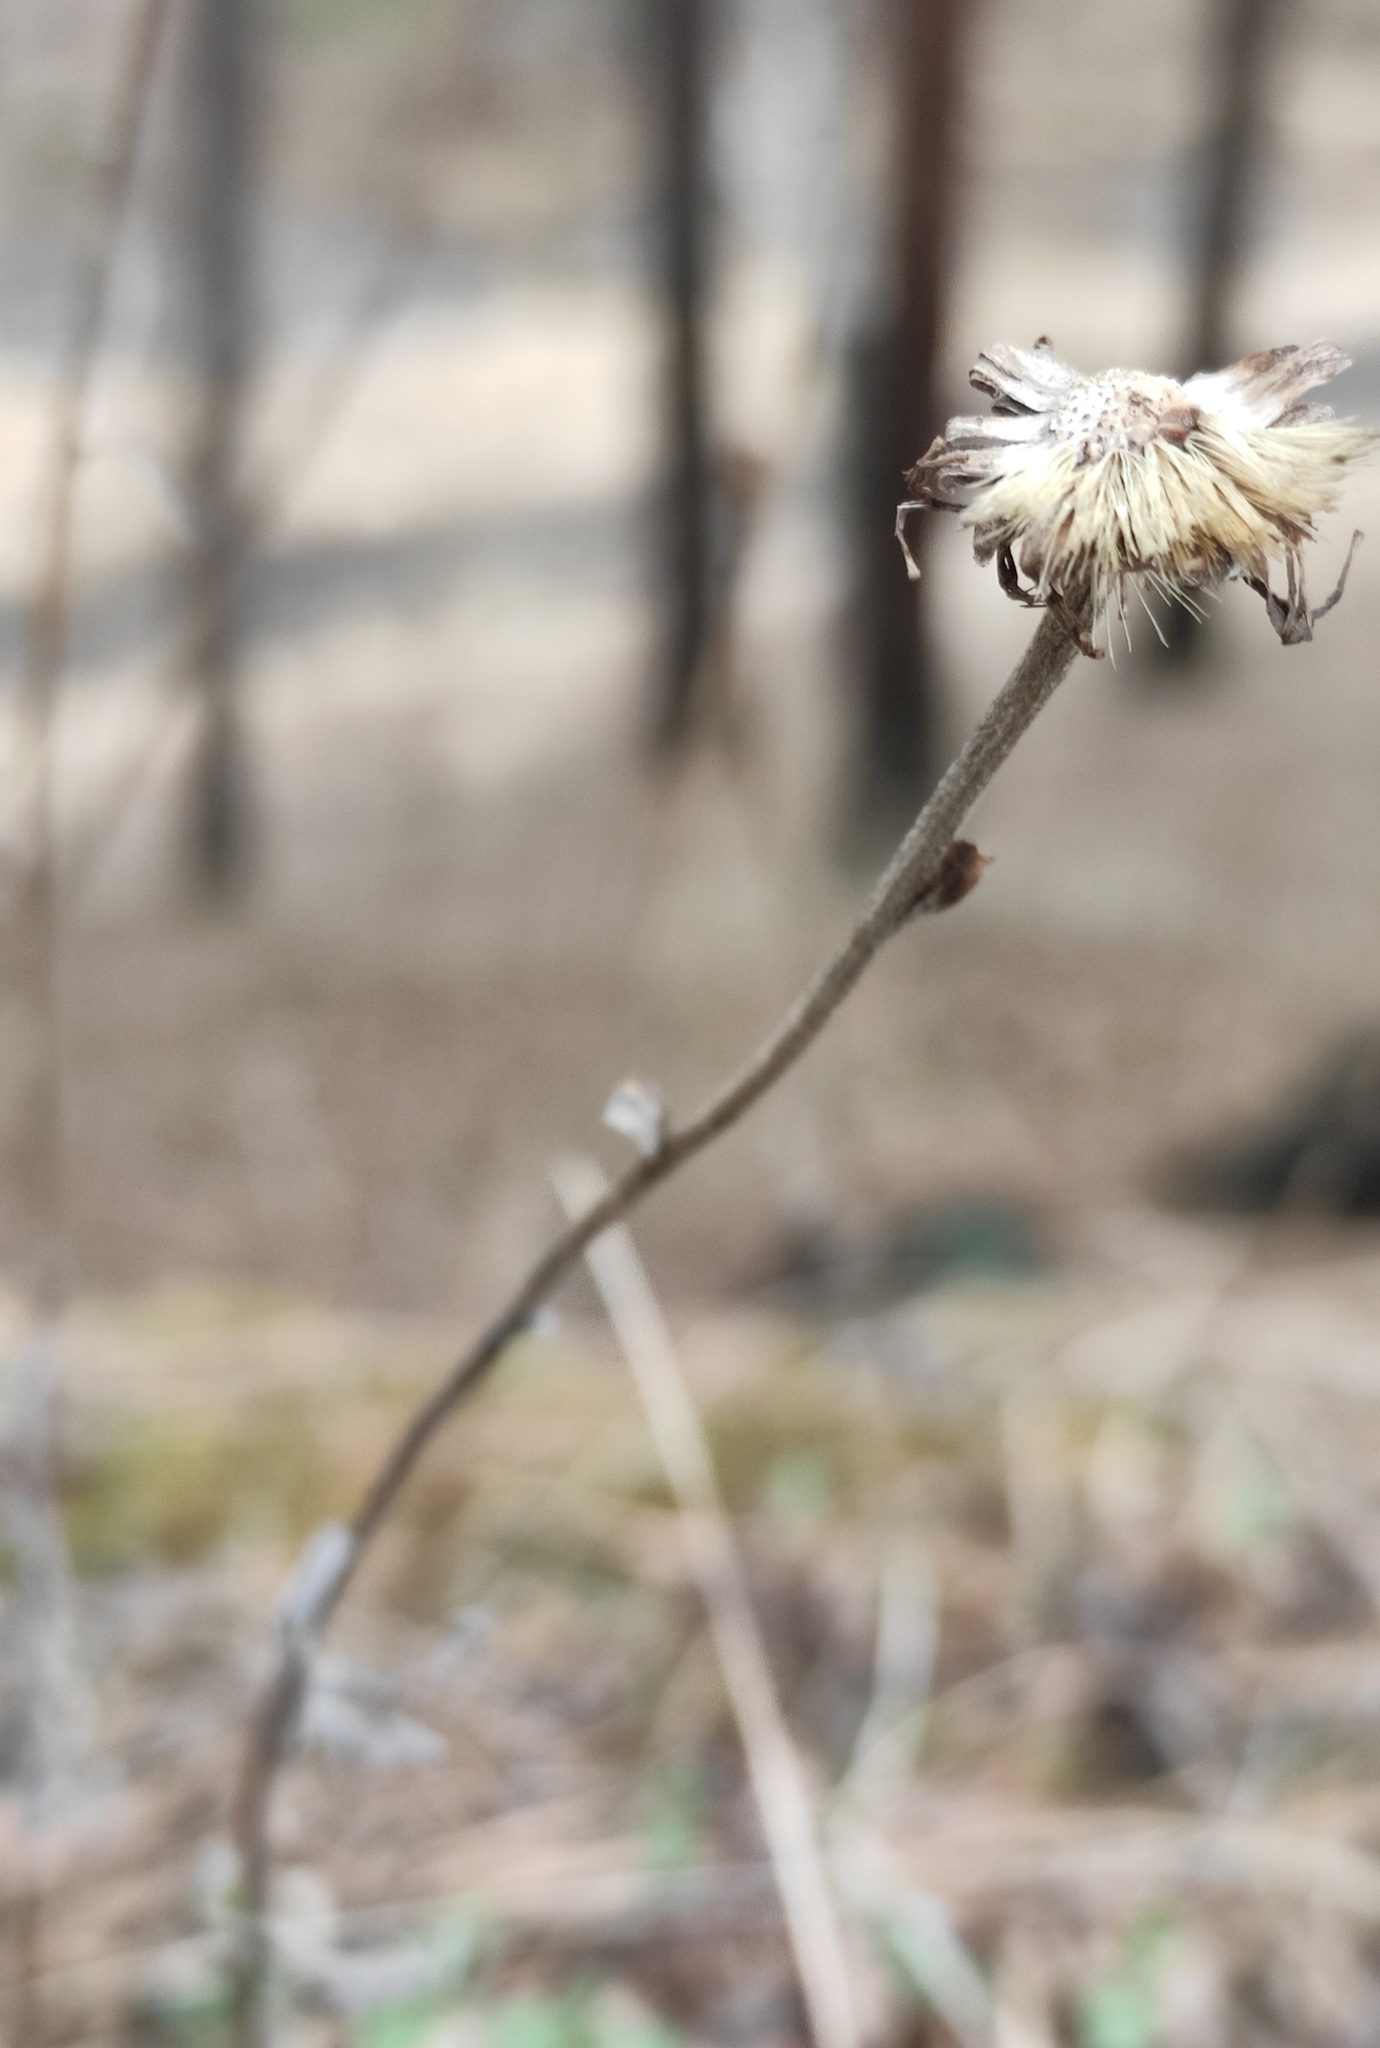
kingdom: Plantae
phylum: Tracheophyta
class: Magnoliopsida
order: Asterales
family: Asteraceae
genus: Aster
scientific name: Aster alpinus
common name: Alpine aster
